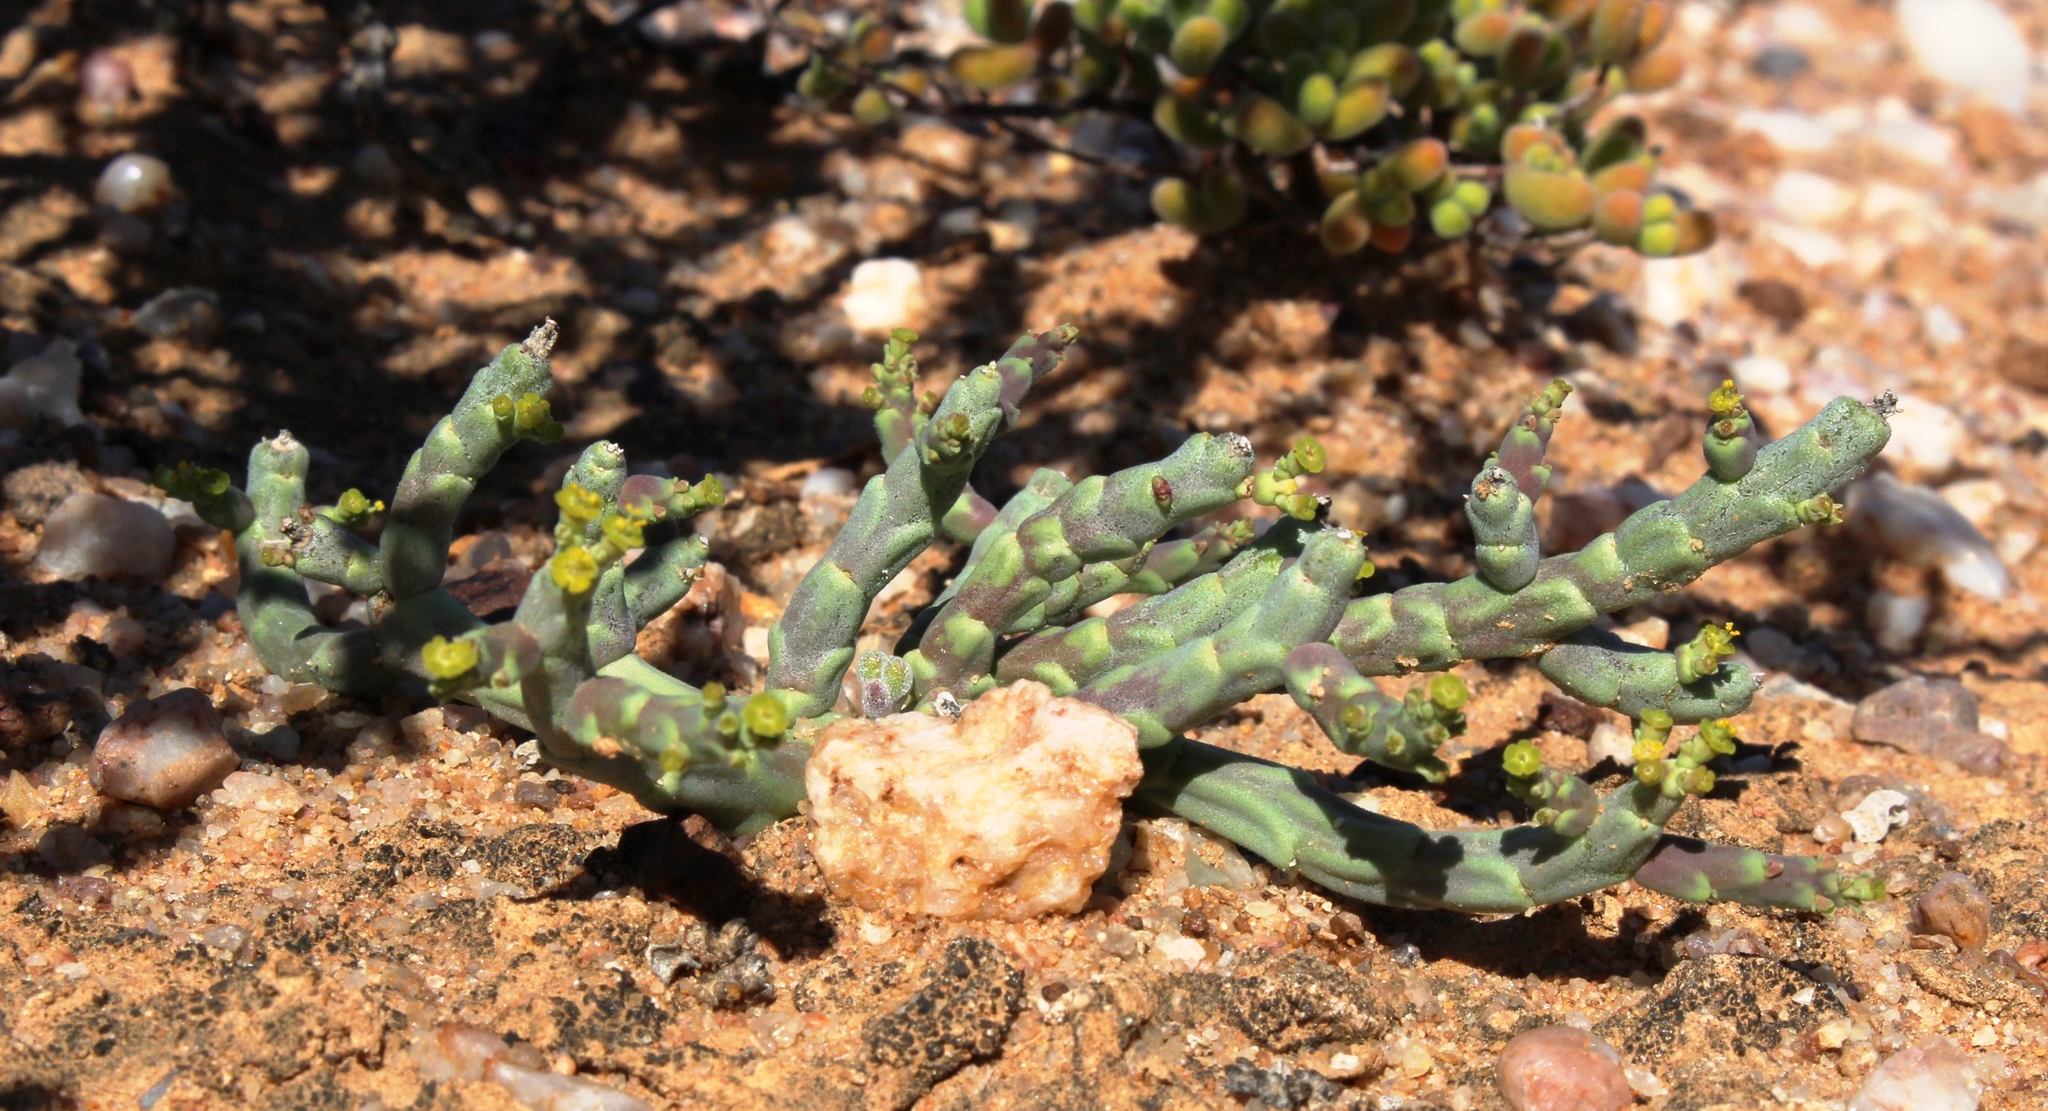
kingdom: Plantae
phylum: Tracheophyta
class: Magnoliopsida
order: Malpighiales
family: Euphorbiaceae
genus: Euphorbia
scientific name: Euphorbia gentilis
